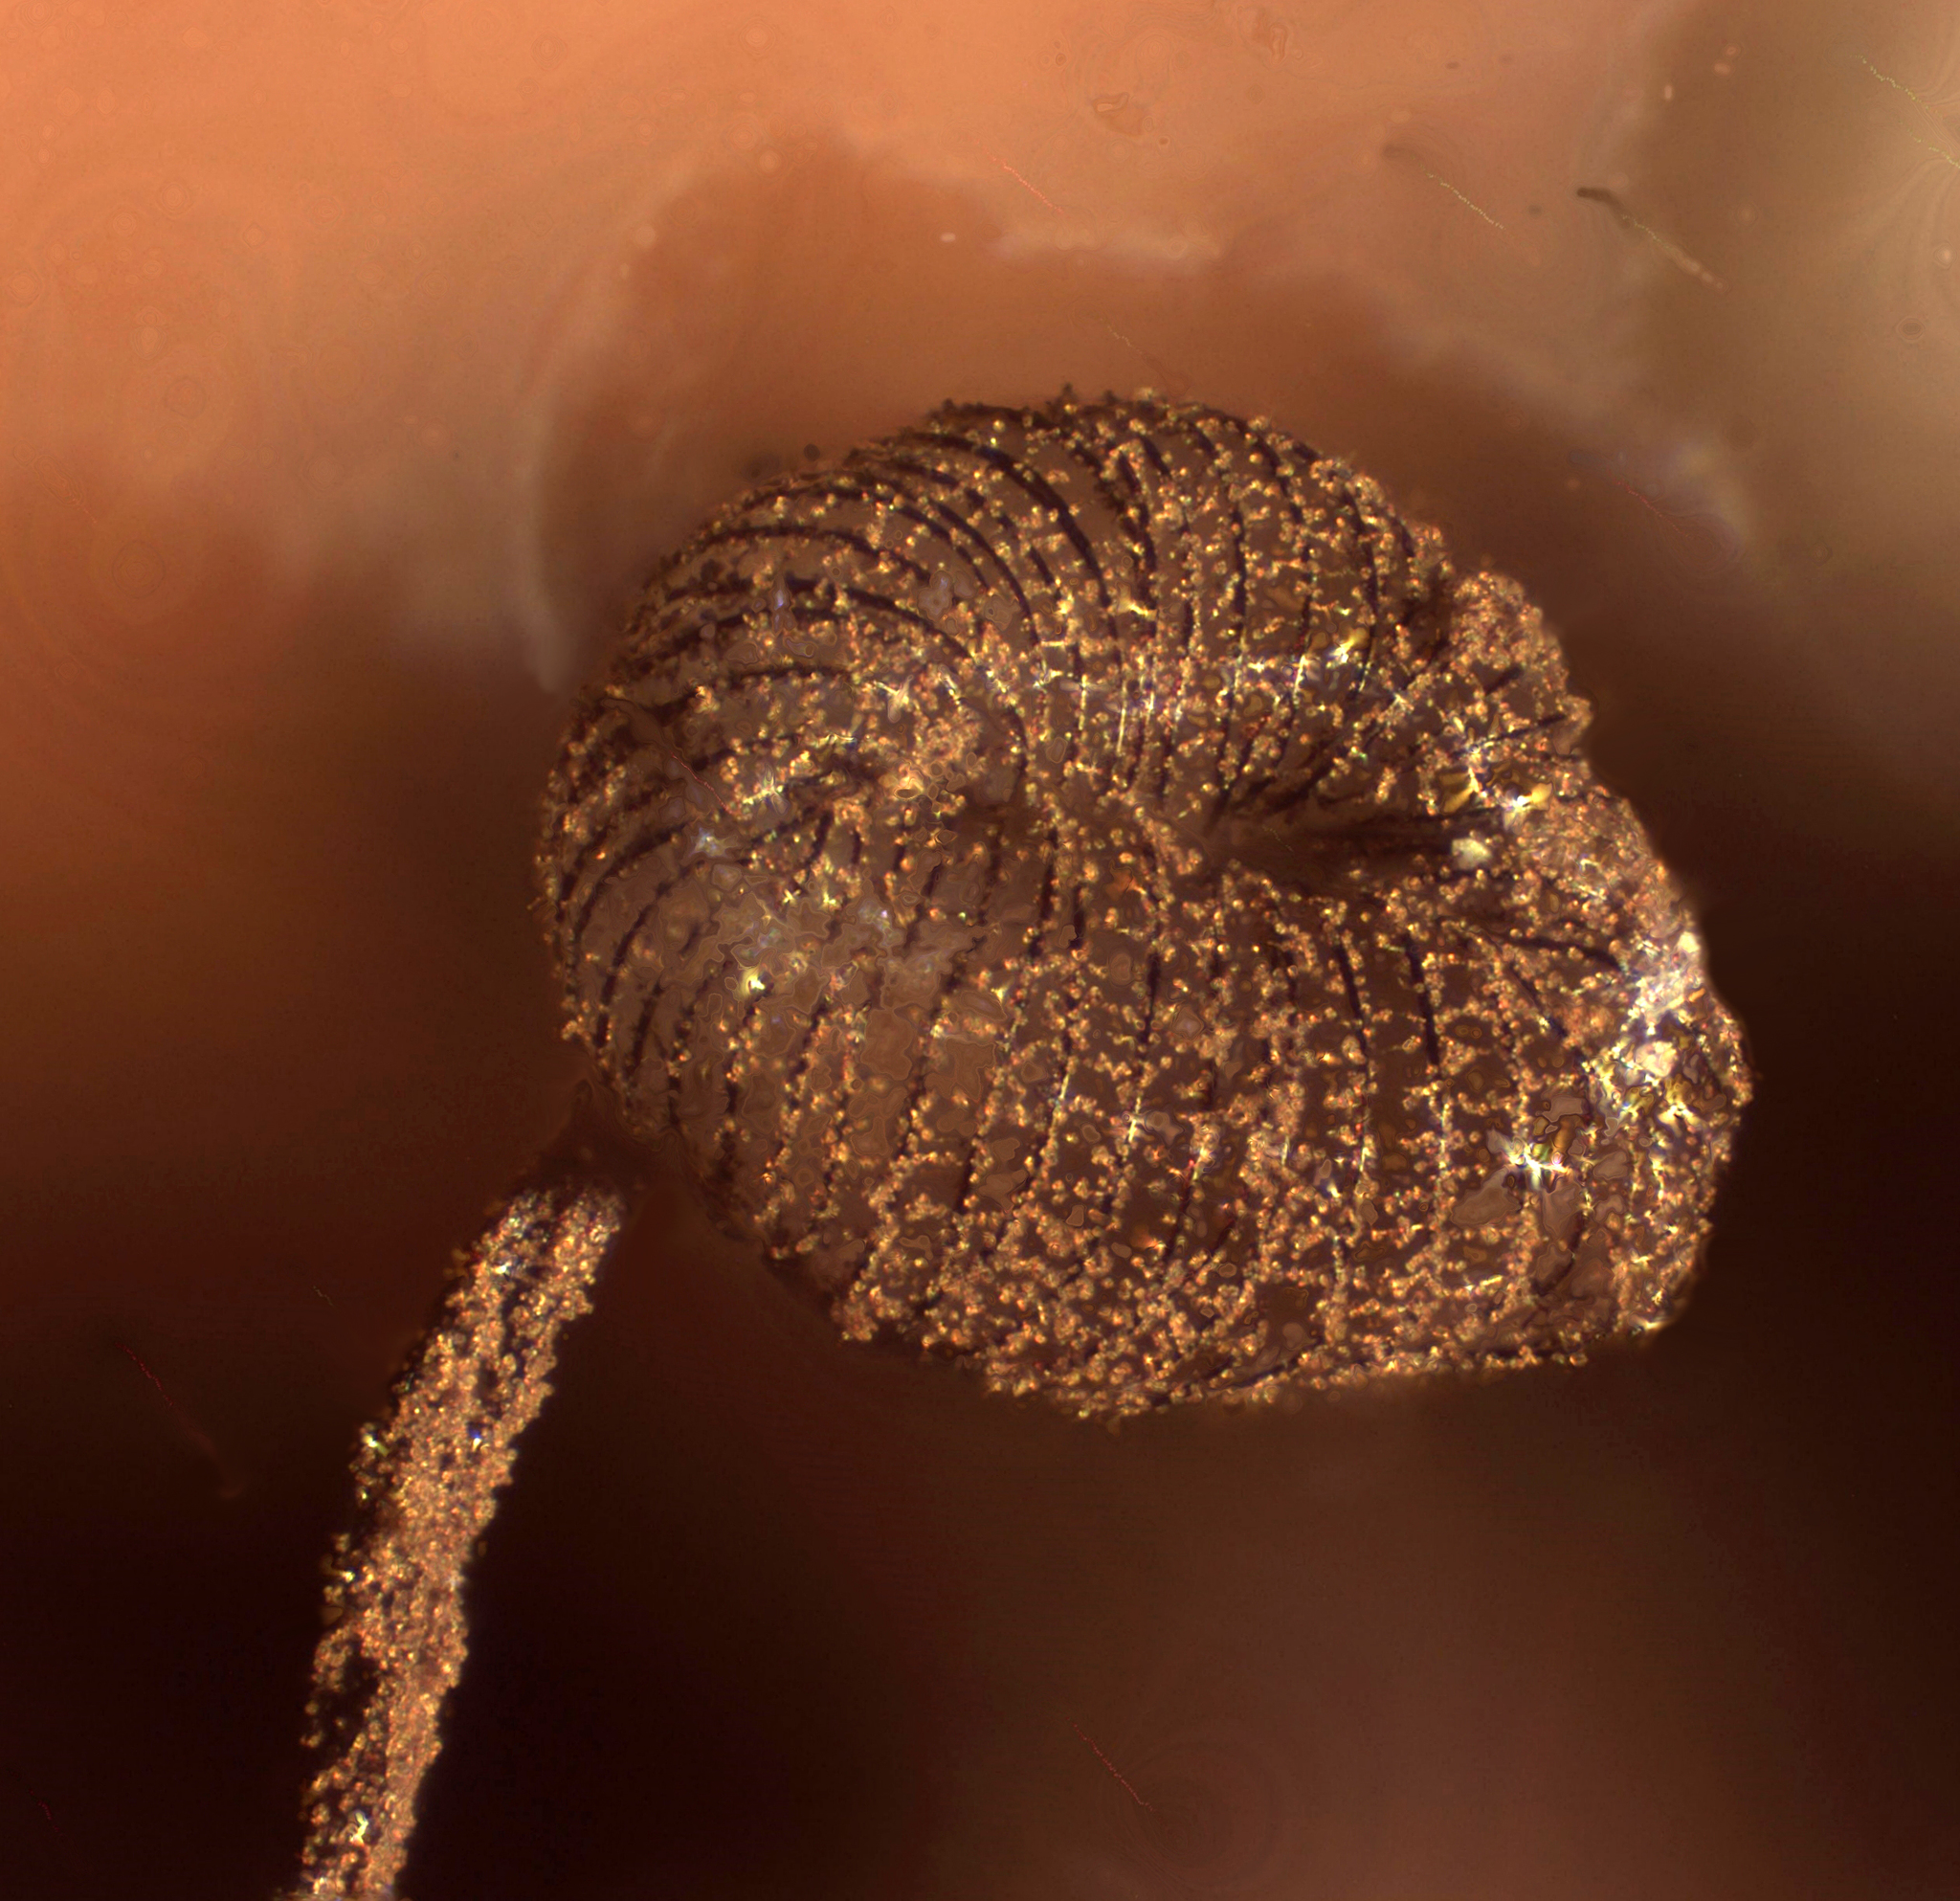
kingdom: Protozoa
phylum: Mycetozoa
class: Myxomycetes
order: Cribrariales
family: Cribrariaceae
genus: Cribraria
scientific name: Cribraria cancellata
